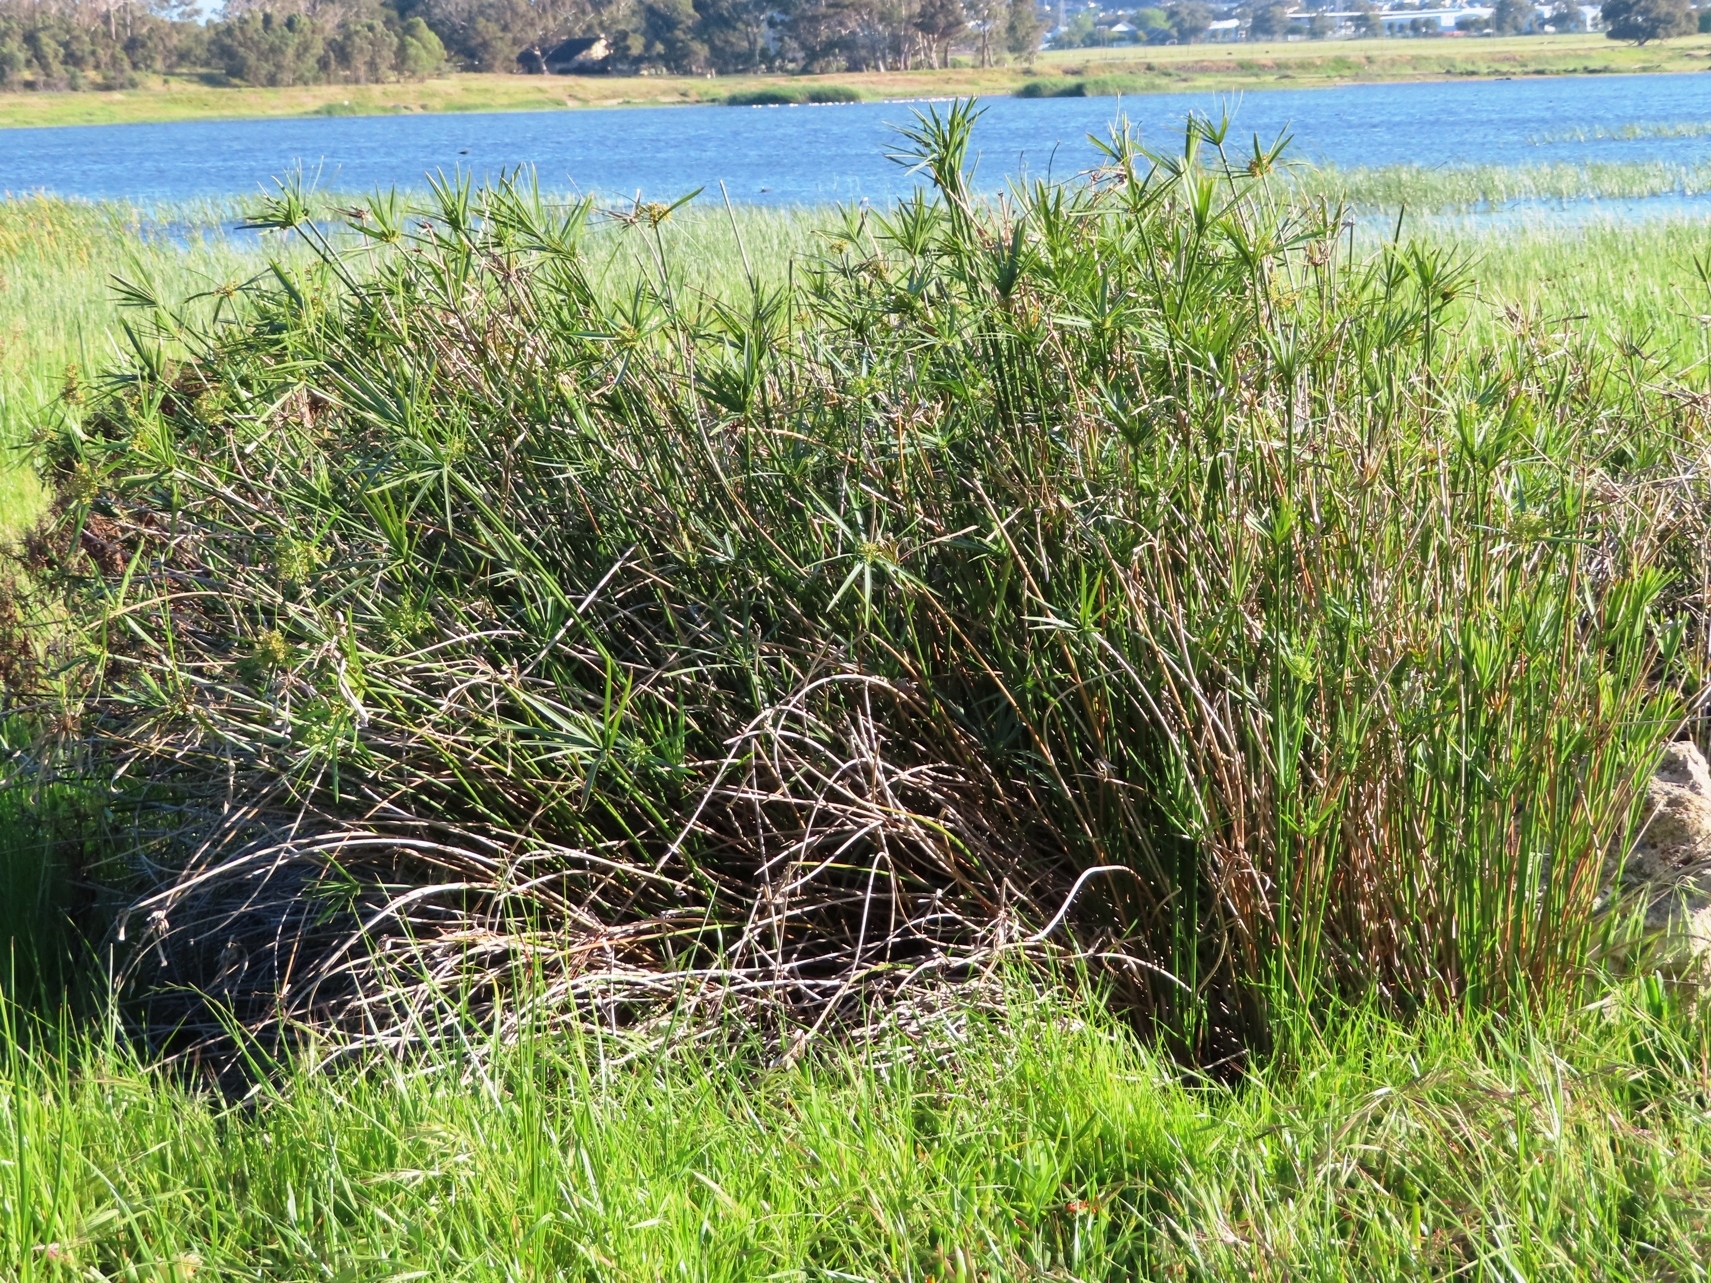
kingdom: Plantae
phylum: Tracheophyta
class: Liliopsida
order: Poales
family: Cyperaceae
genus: Cyperus
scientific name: Cyperus textilis
